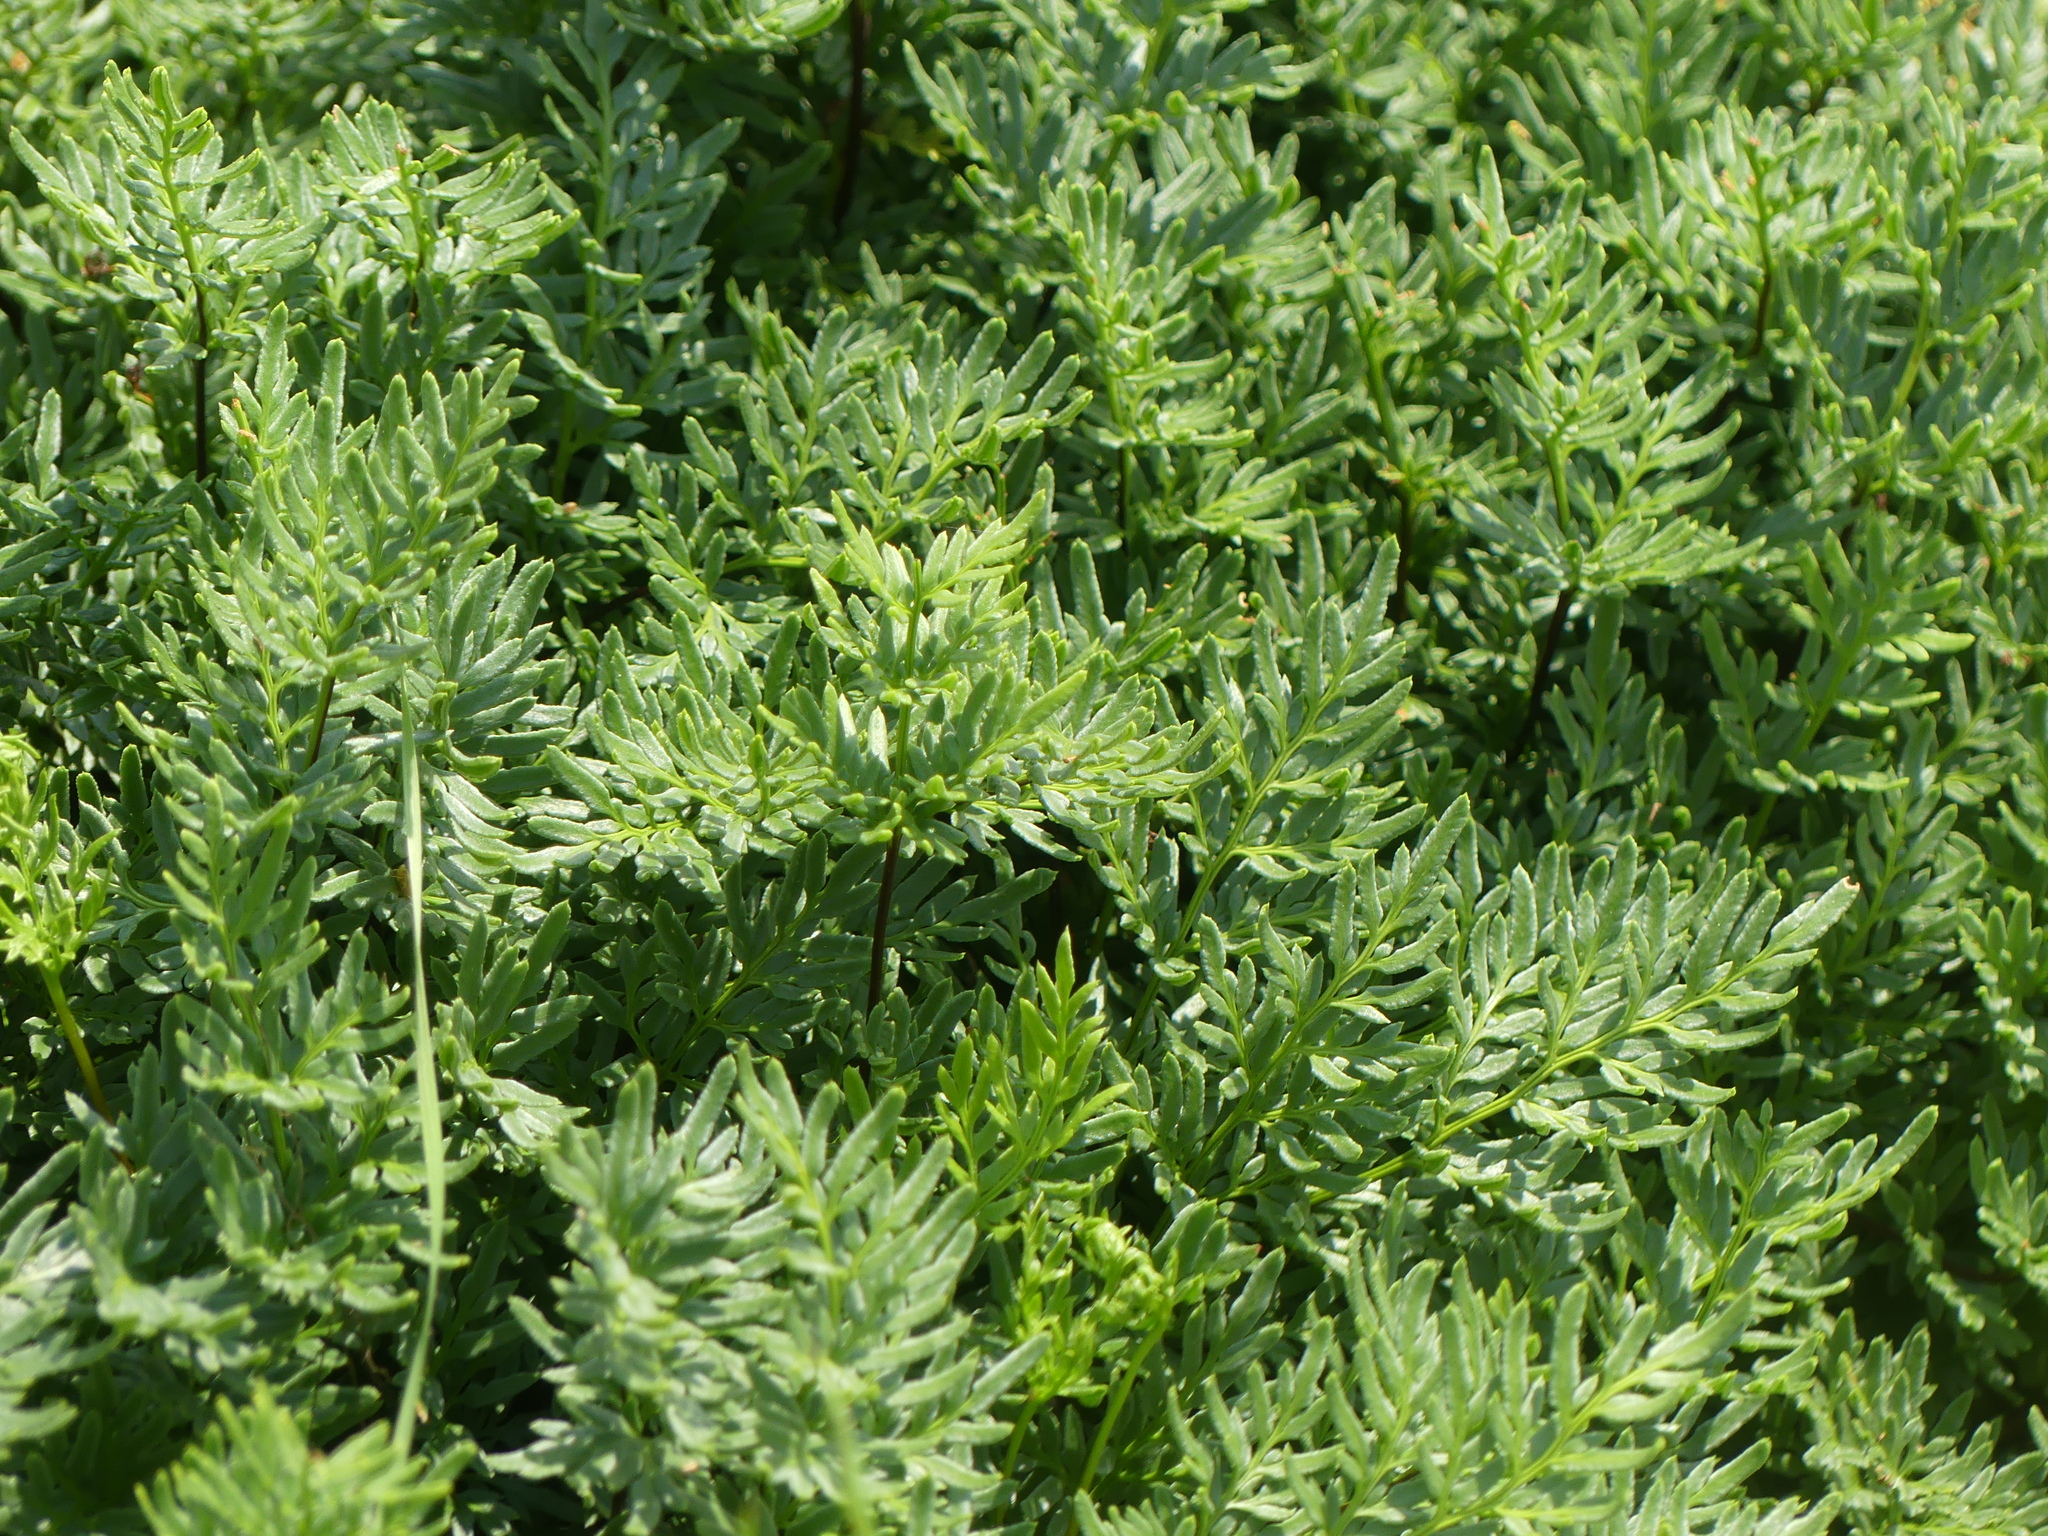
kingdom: Plantae
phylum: Tracheophyta
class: Polypodiopsida
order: Polypodiales
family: Pteridaceae
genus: Aspidotis
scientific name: Aspidotis densa
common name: Indian's dream
